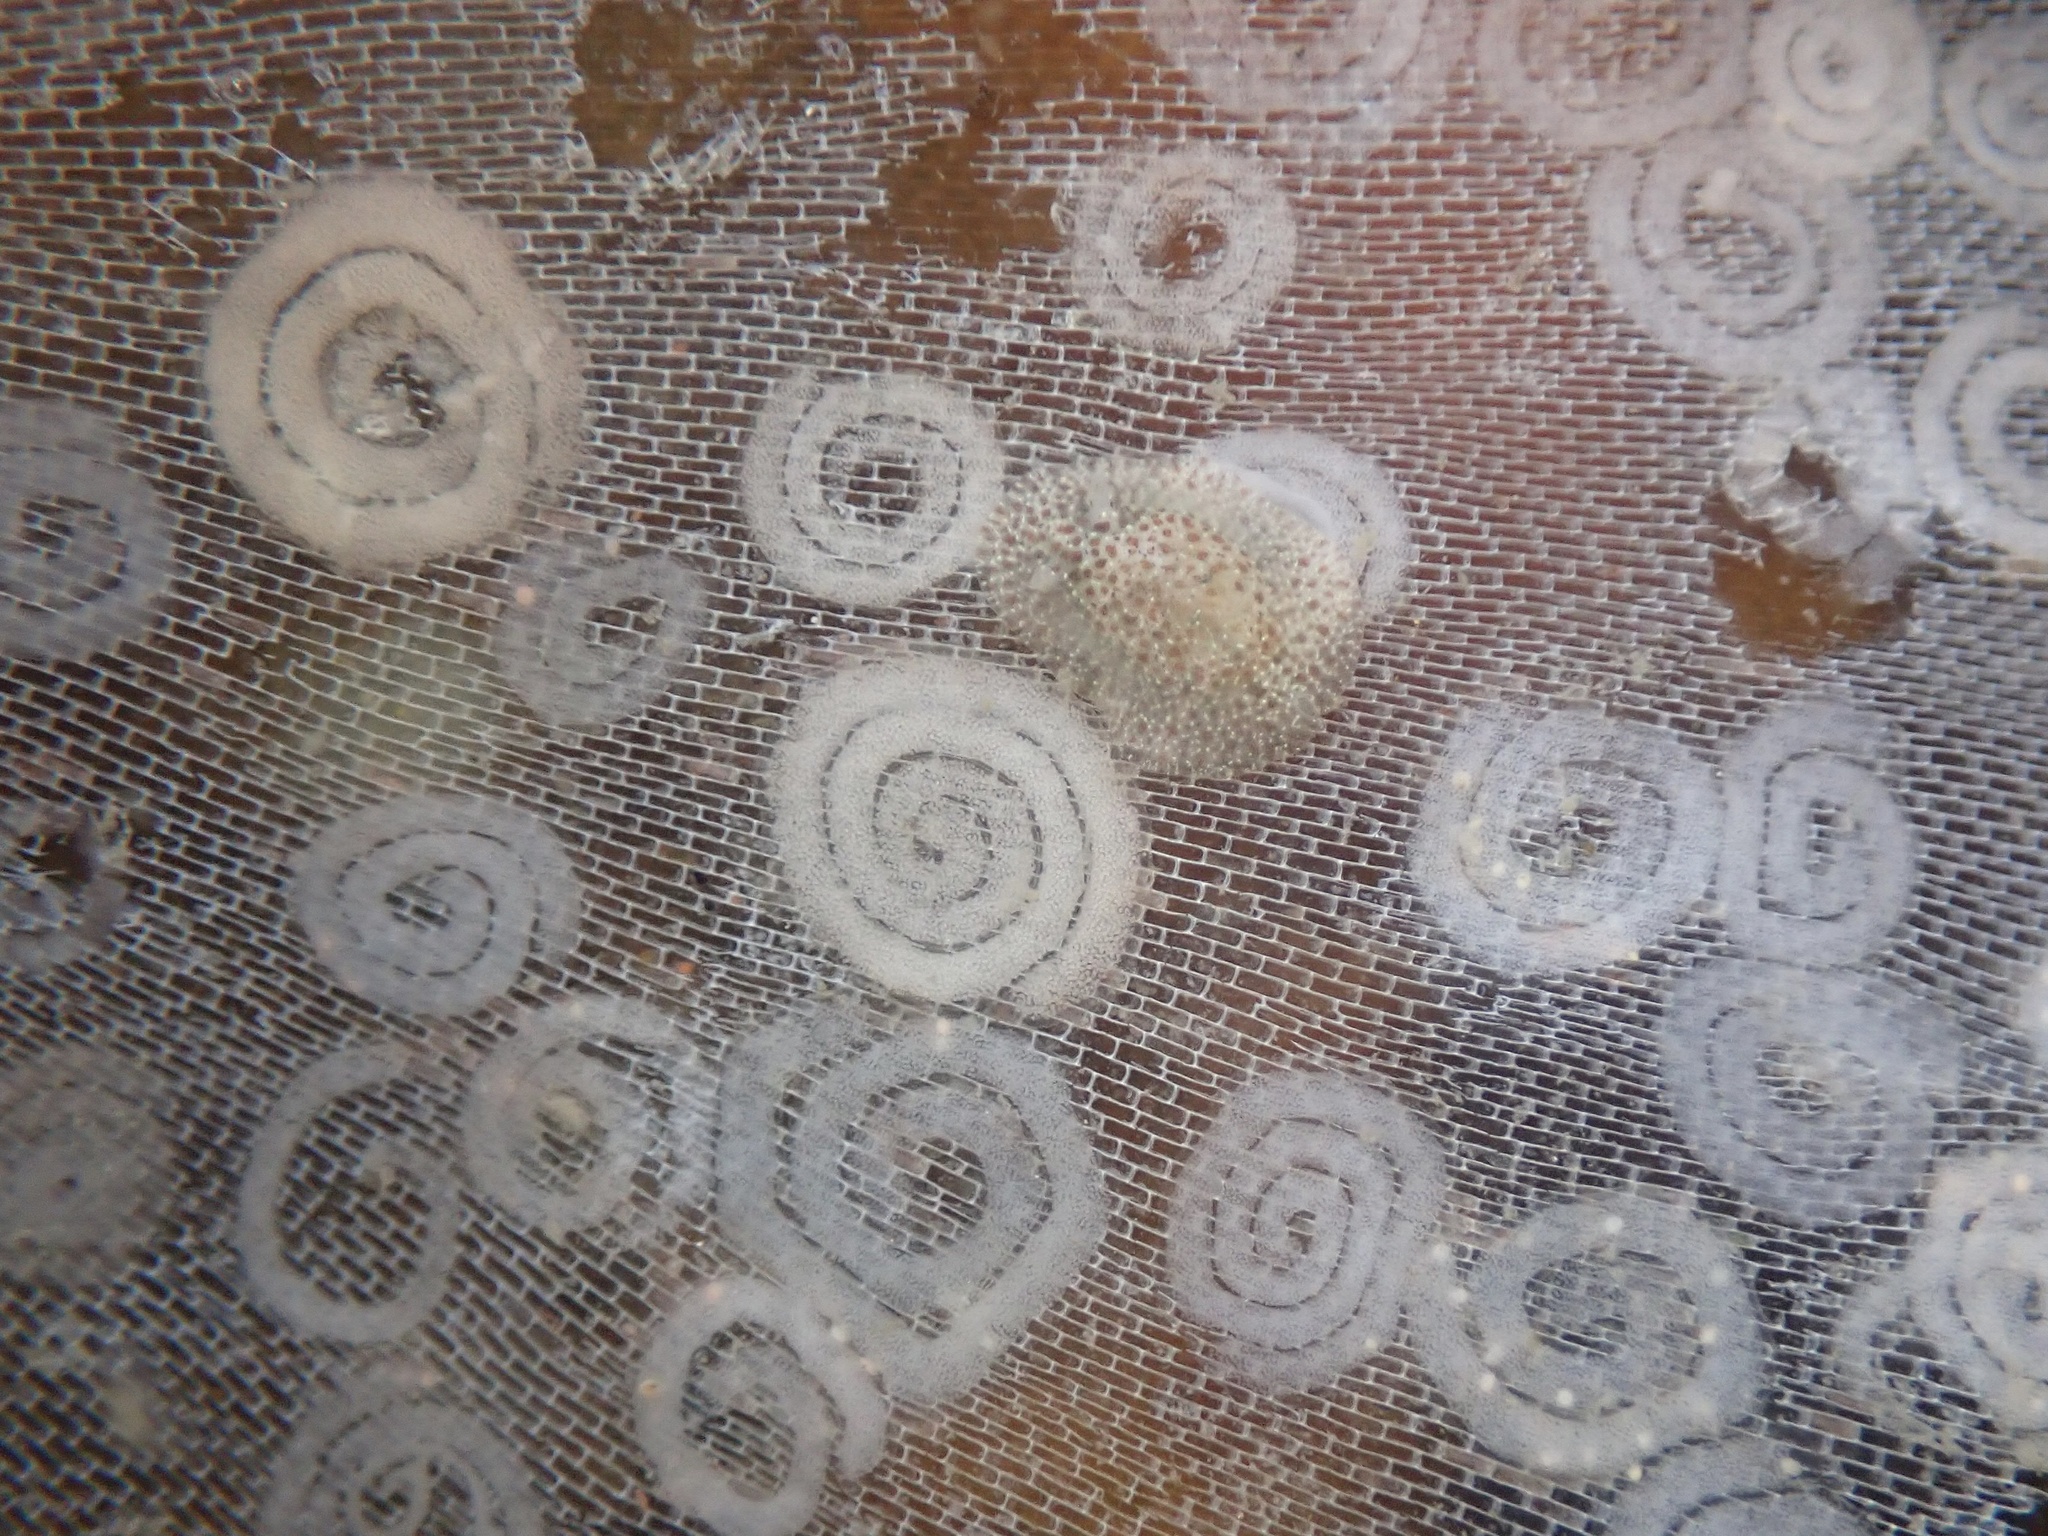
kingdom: Animalia
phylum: Mollusca
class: Gastropoda
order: Nudibranchia
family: Corambidae
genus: Corambe
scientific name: Corambe pacifica
